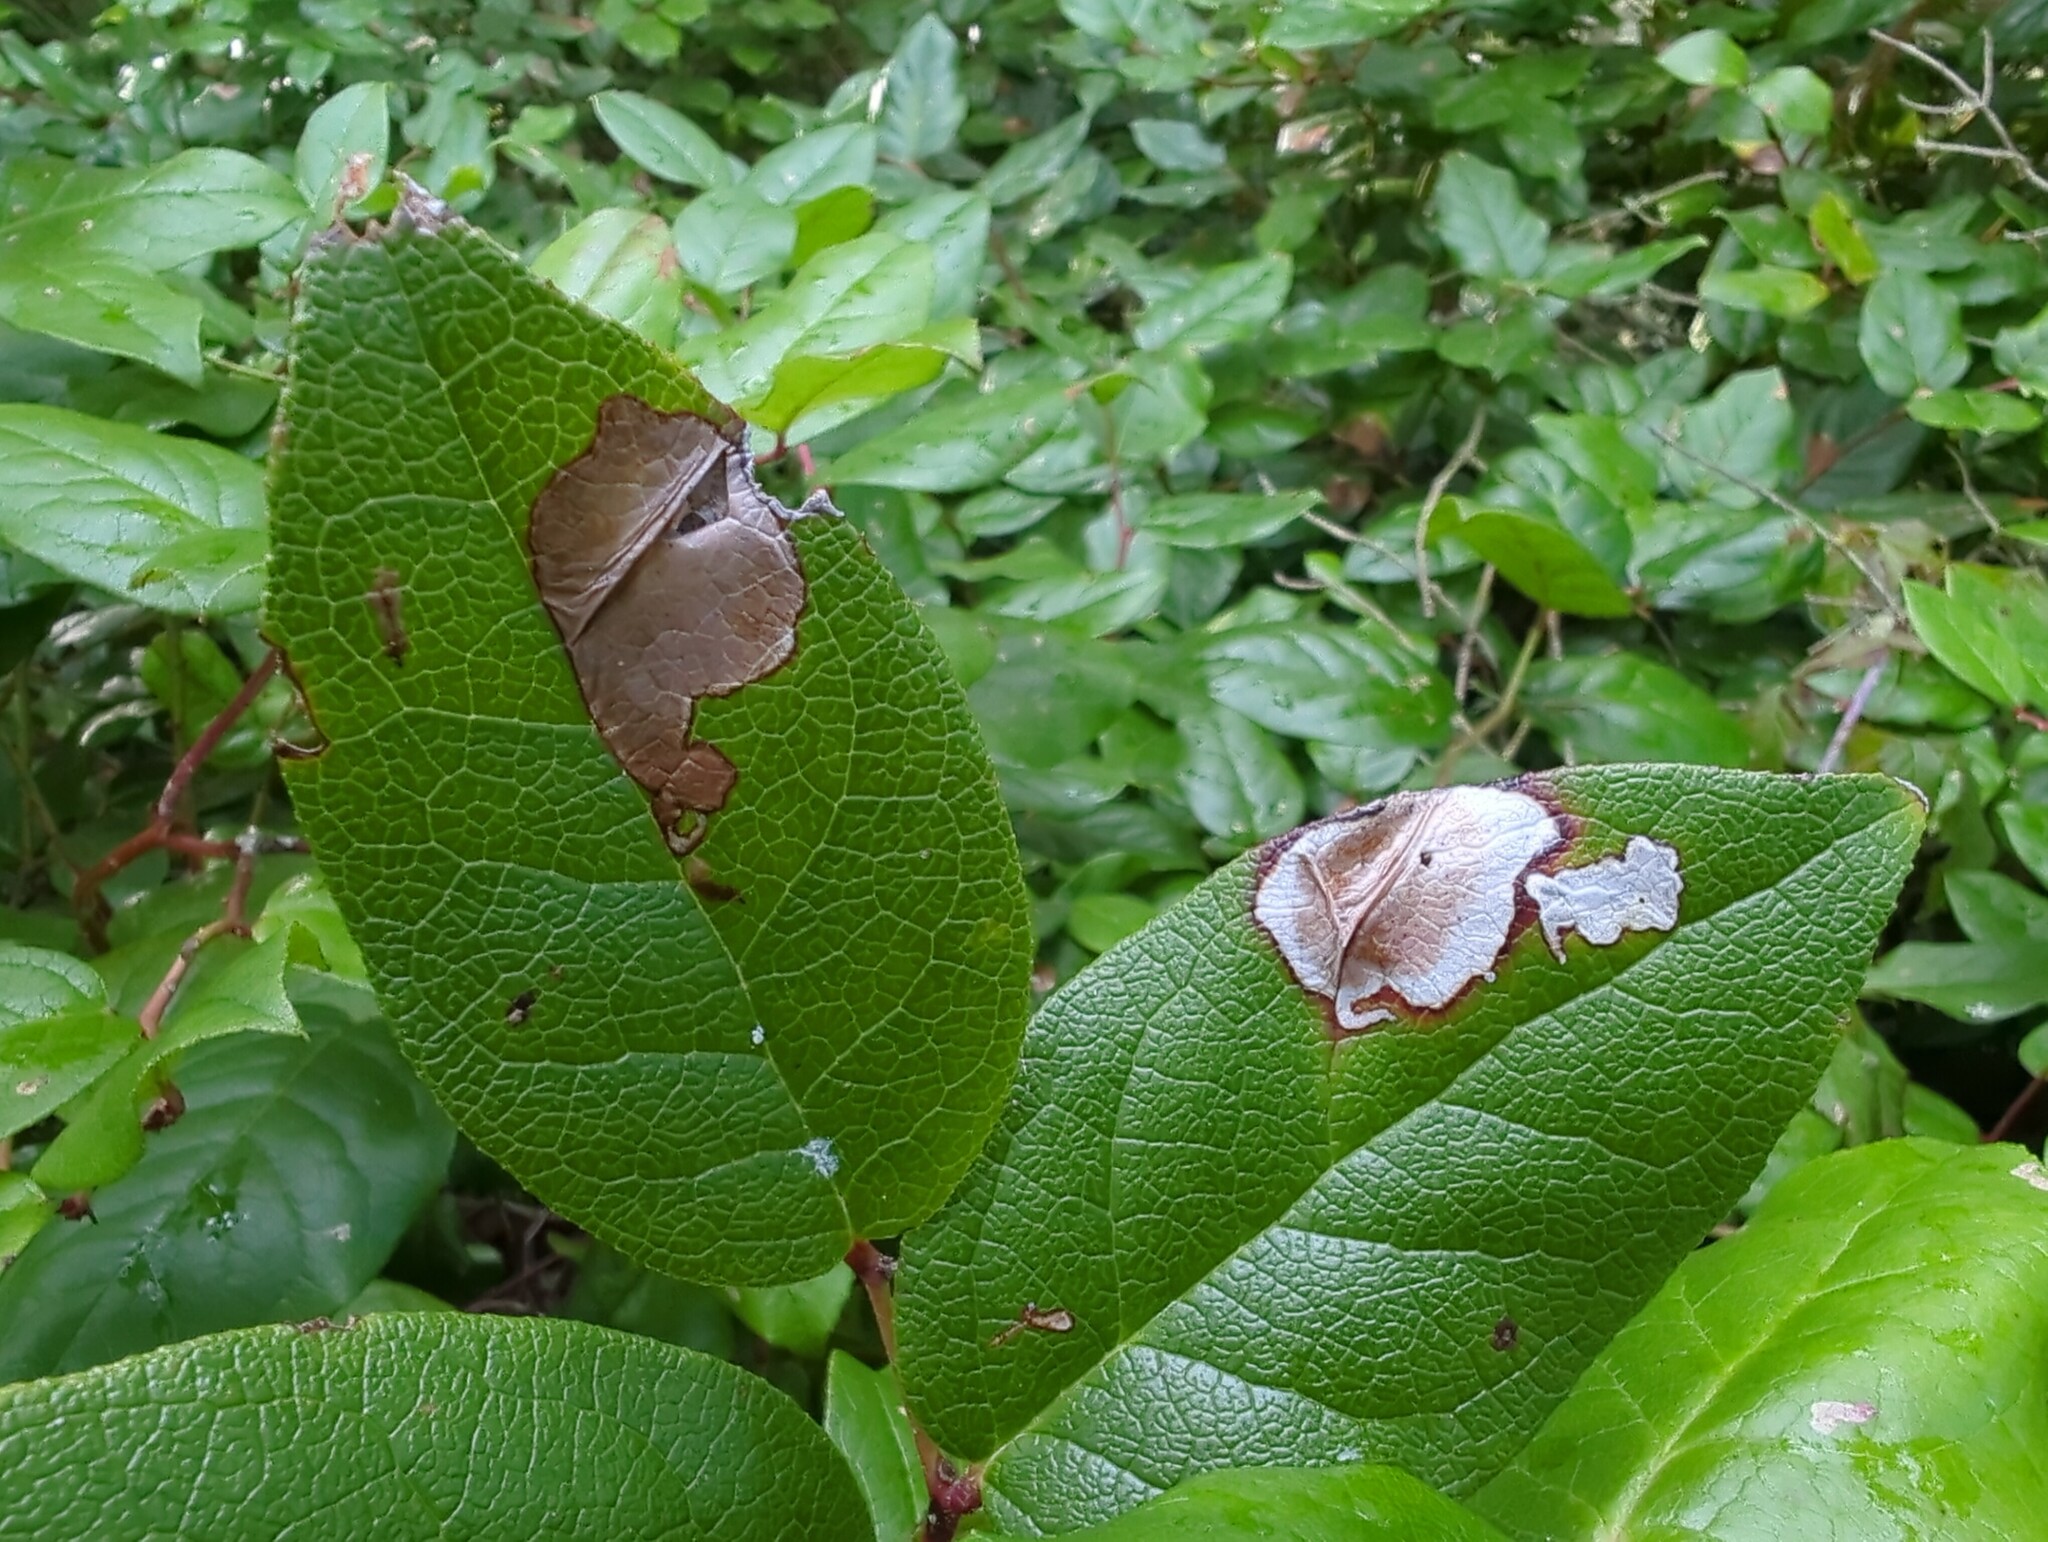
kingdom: Plantae
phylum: Tracheophyta
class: Magnoliopsida
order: Ericales
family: Ericaceae
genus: Gaultheria
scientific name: Gaultheria shallon
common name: Shallon
